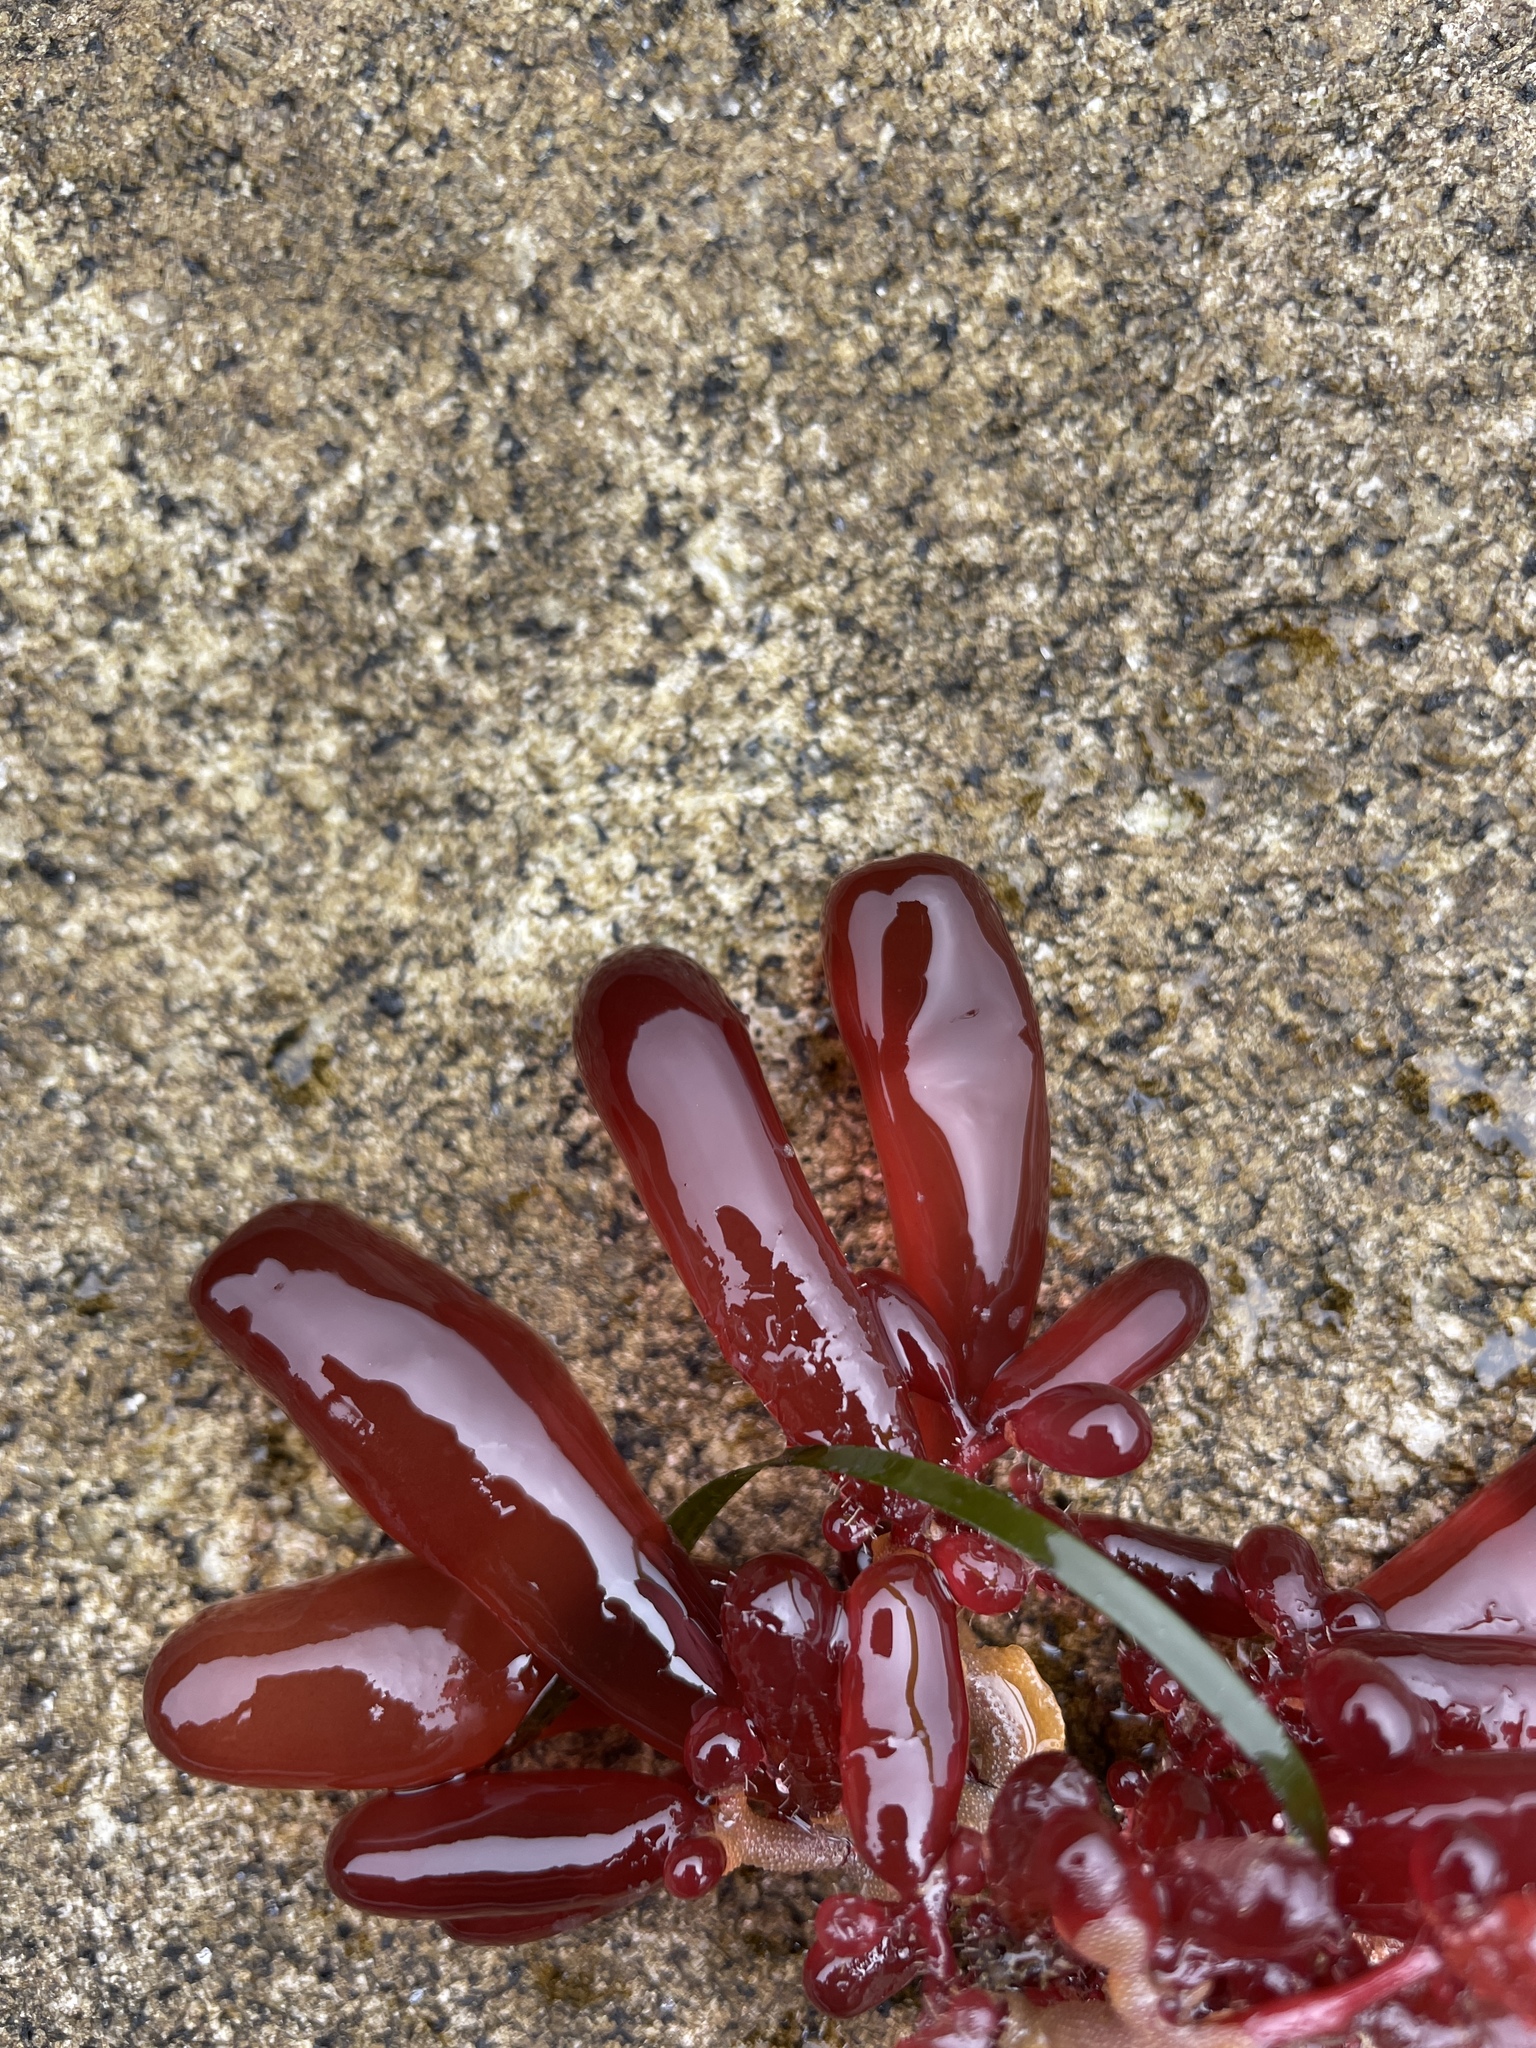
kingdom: Plantae
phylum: Rhodophyta
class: Florideophyceae
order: Rhodymeniales
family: Rhodymeniaceae
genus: Botryocladia
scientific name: Botryocladia pseudodichotoma
